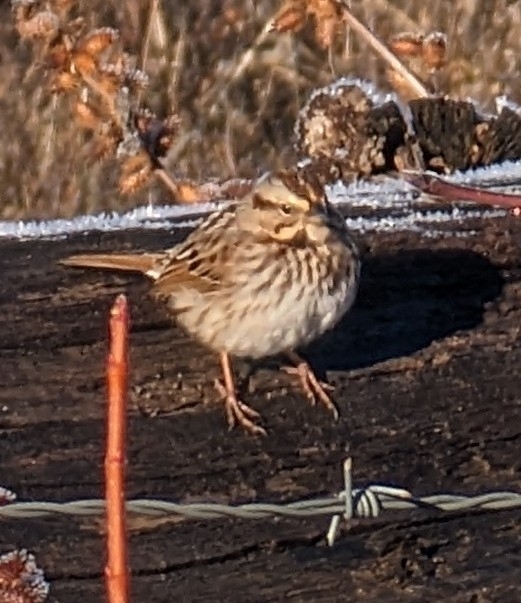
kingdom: Animalia
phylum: Chordata
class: Aves
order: Passeriformes
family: Passerellidae
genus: Melospiza
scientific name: Melospiza melodia
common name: Song sparrow
